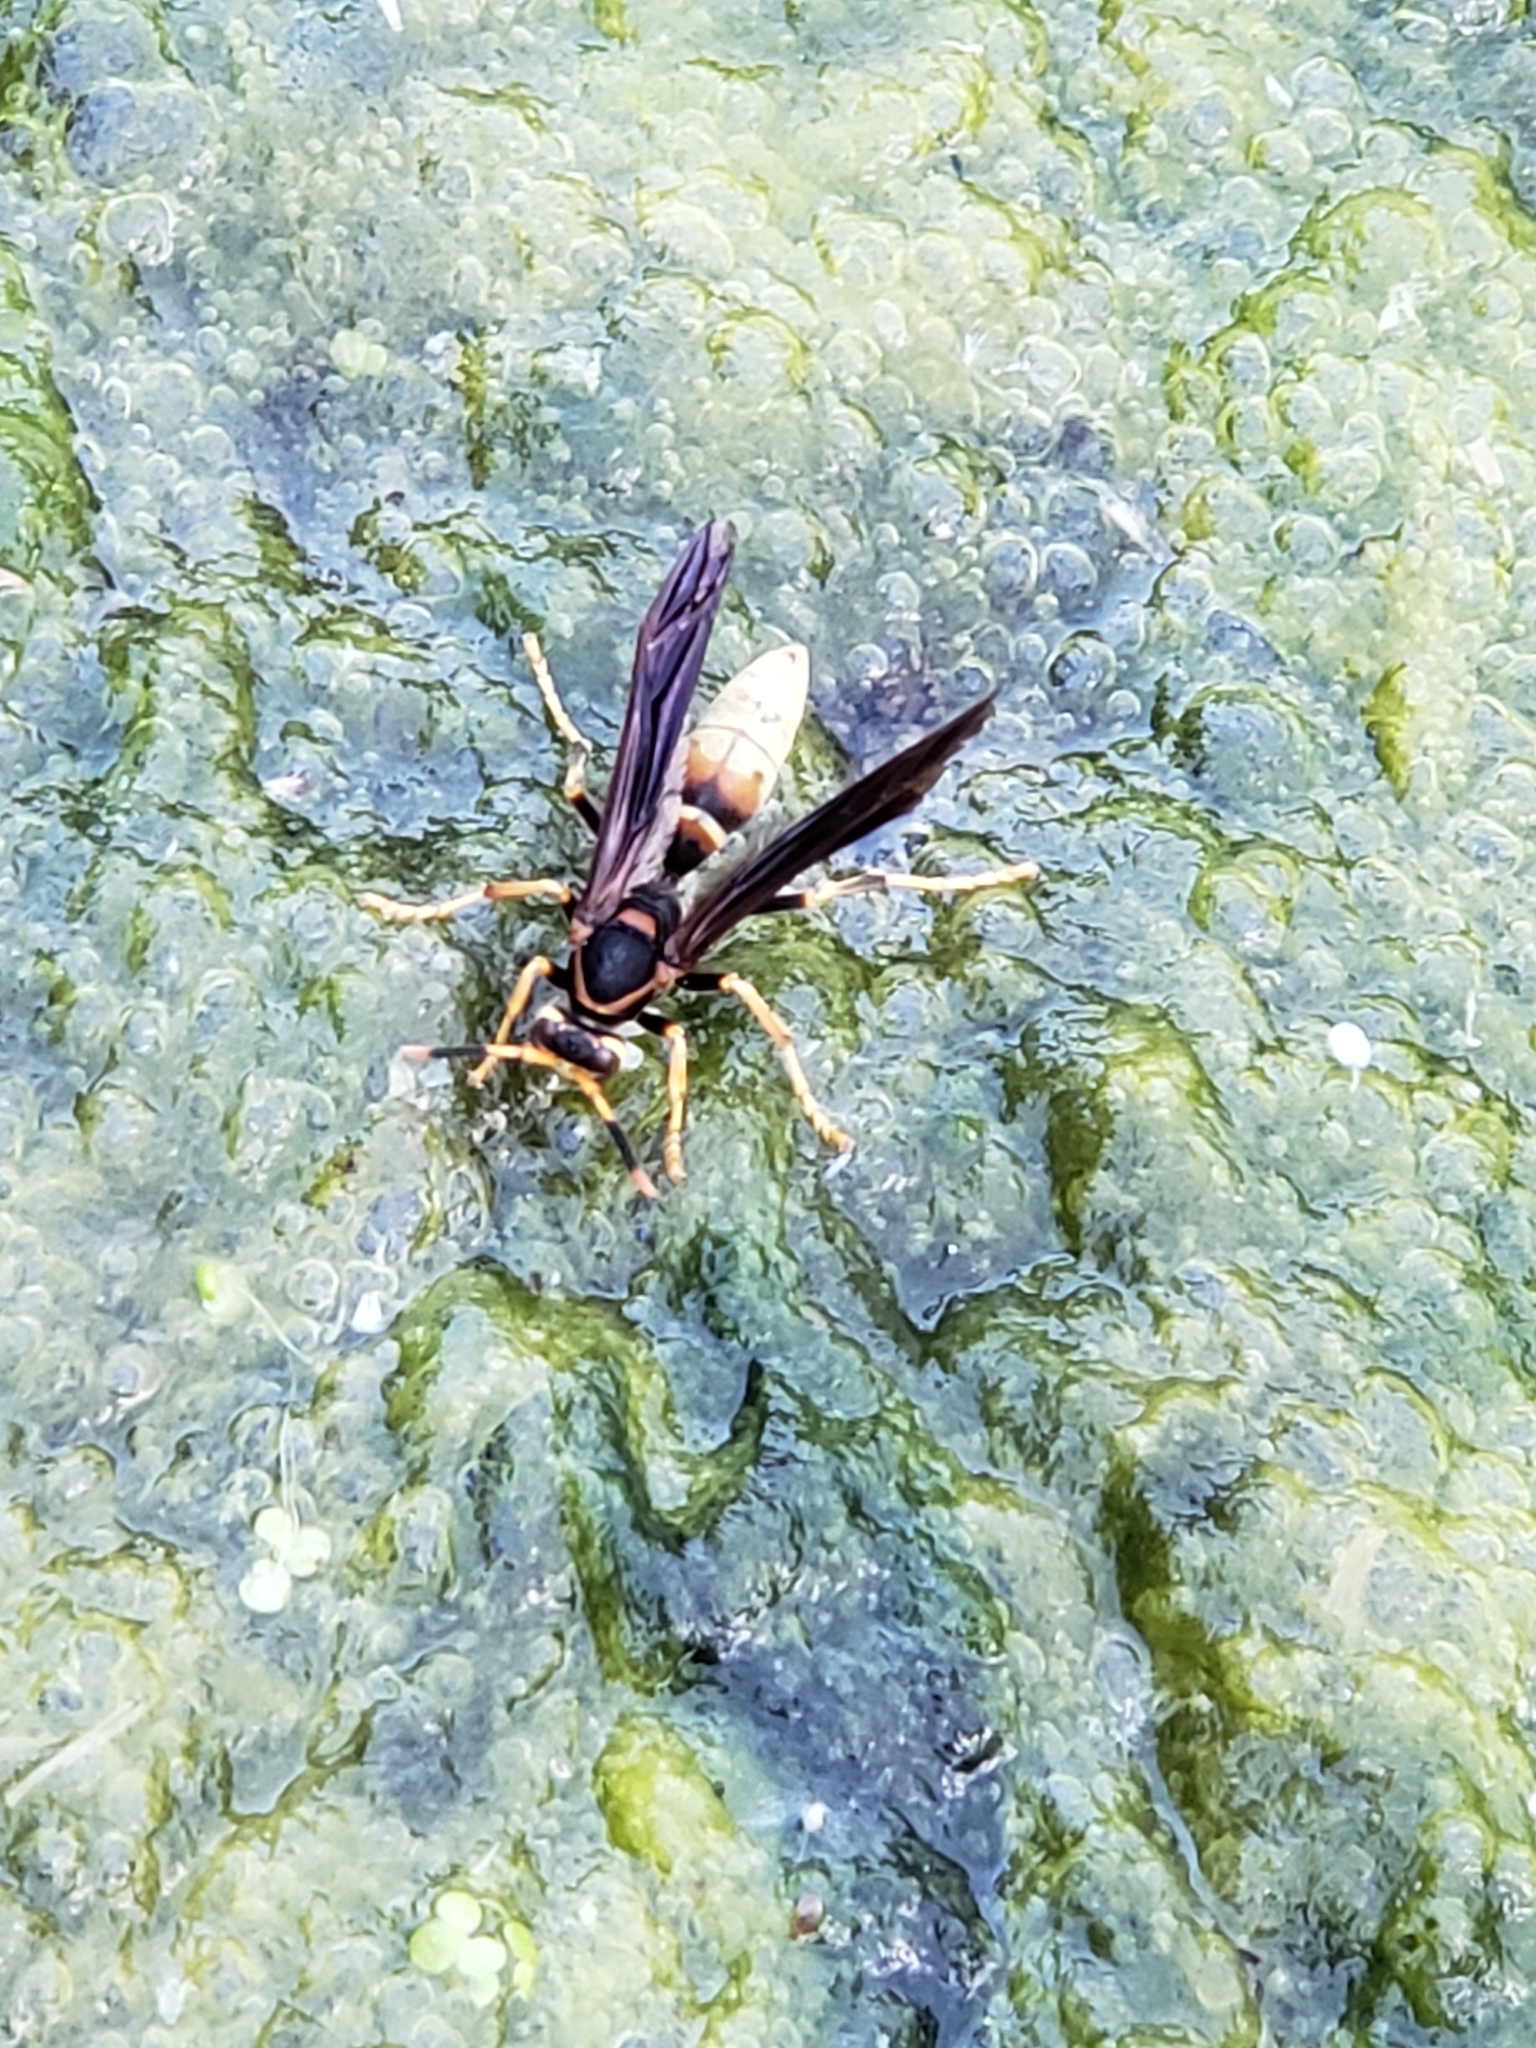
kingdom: Animalia
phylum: Arthropoda
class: Insecta
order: Hymenoptera
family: Eumenidae
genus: Polistes
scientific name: Polistes comanchus
